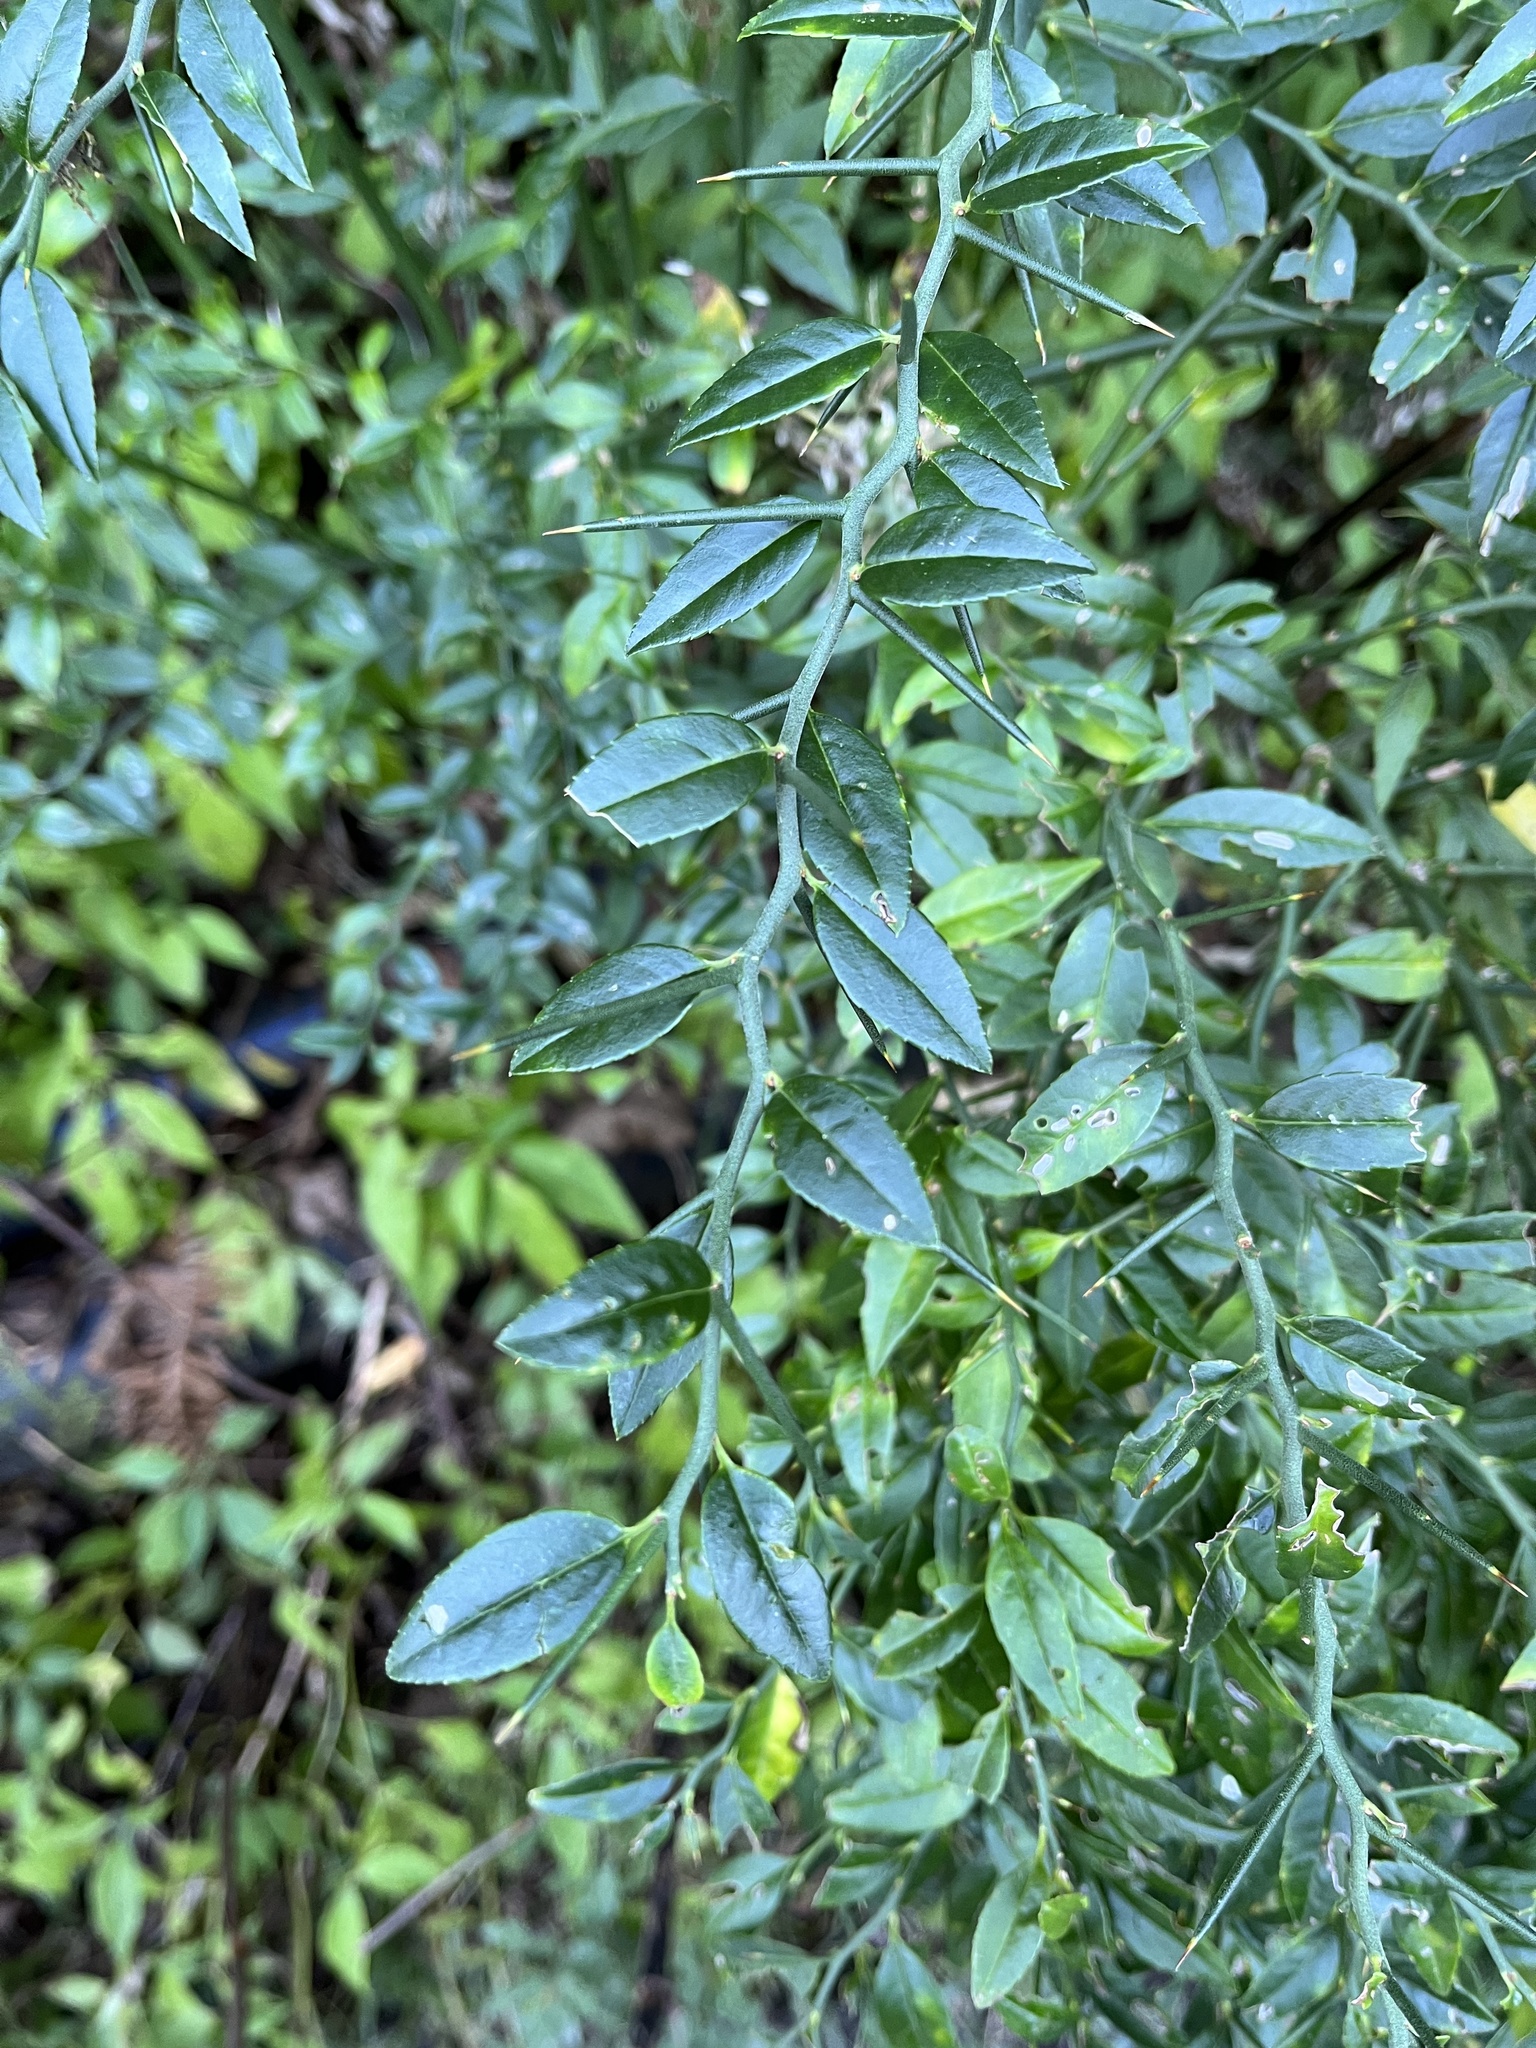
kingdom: Plantae
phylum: Tracheophyta
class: Magnoliopsida
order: Rosales
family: Rosaceae
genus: Prinsepia
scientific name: Prinsepia scandens
